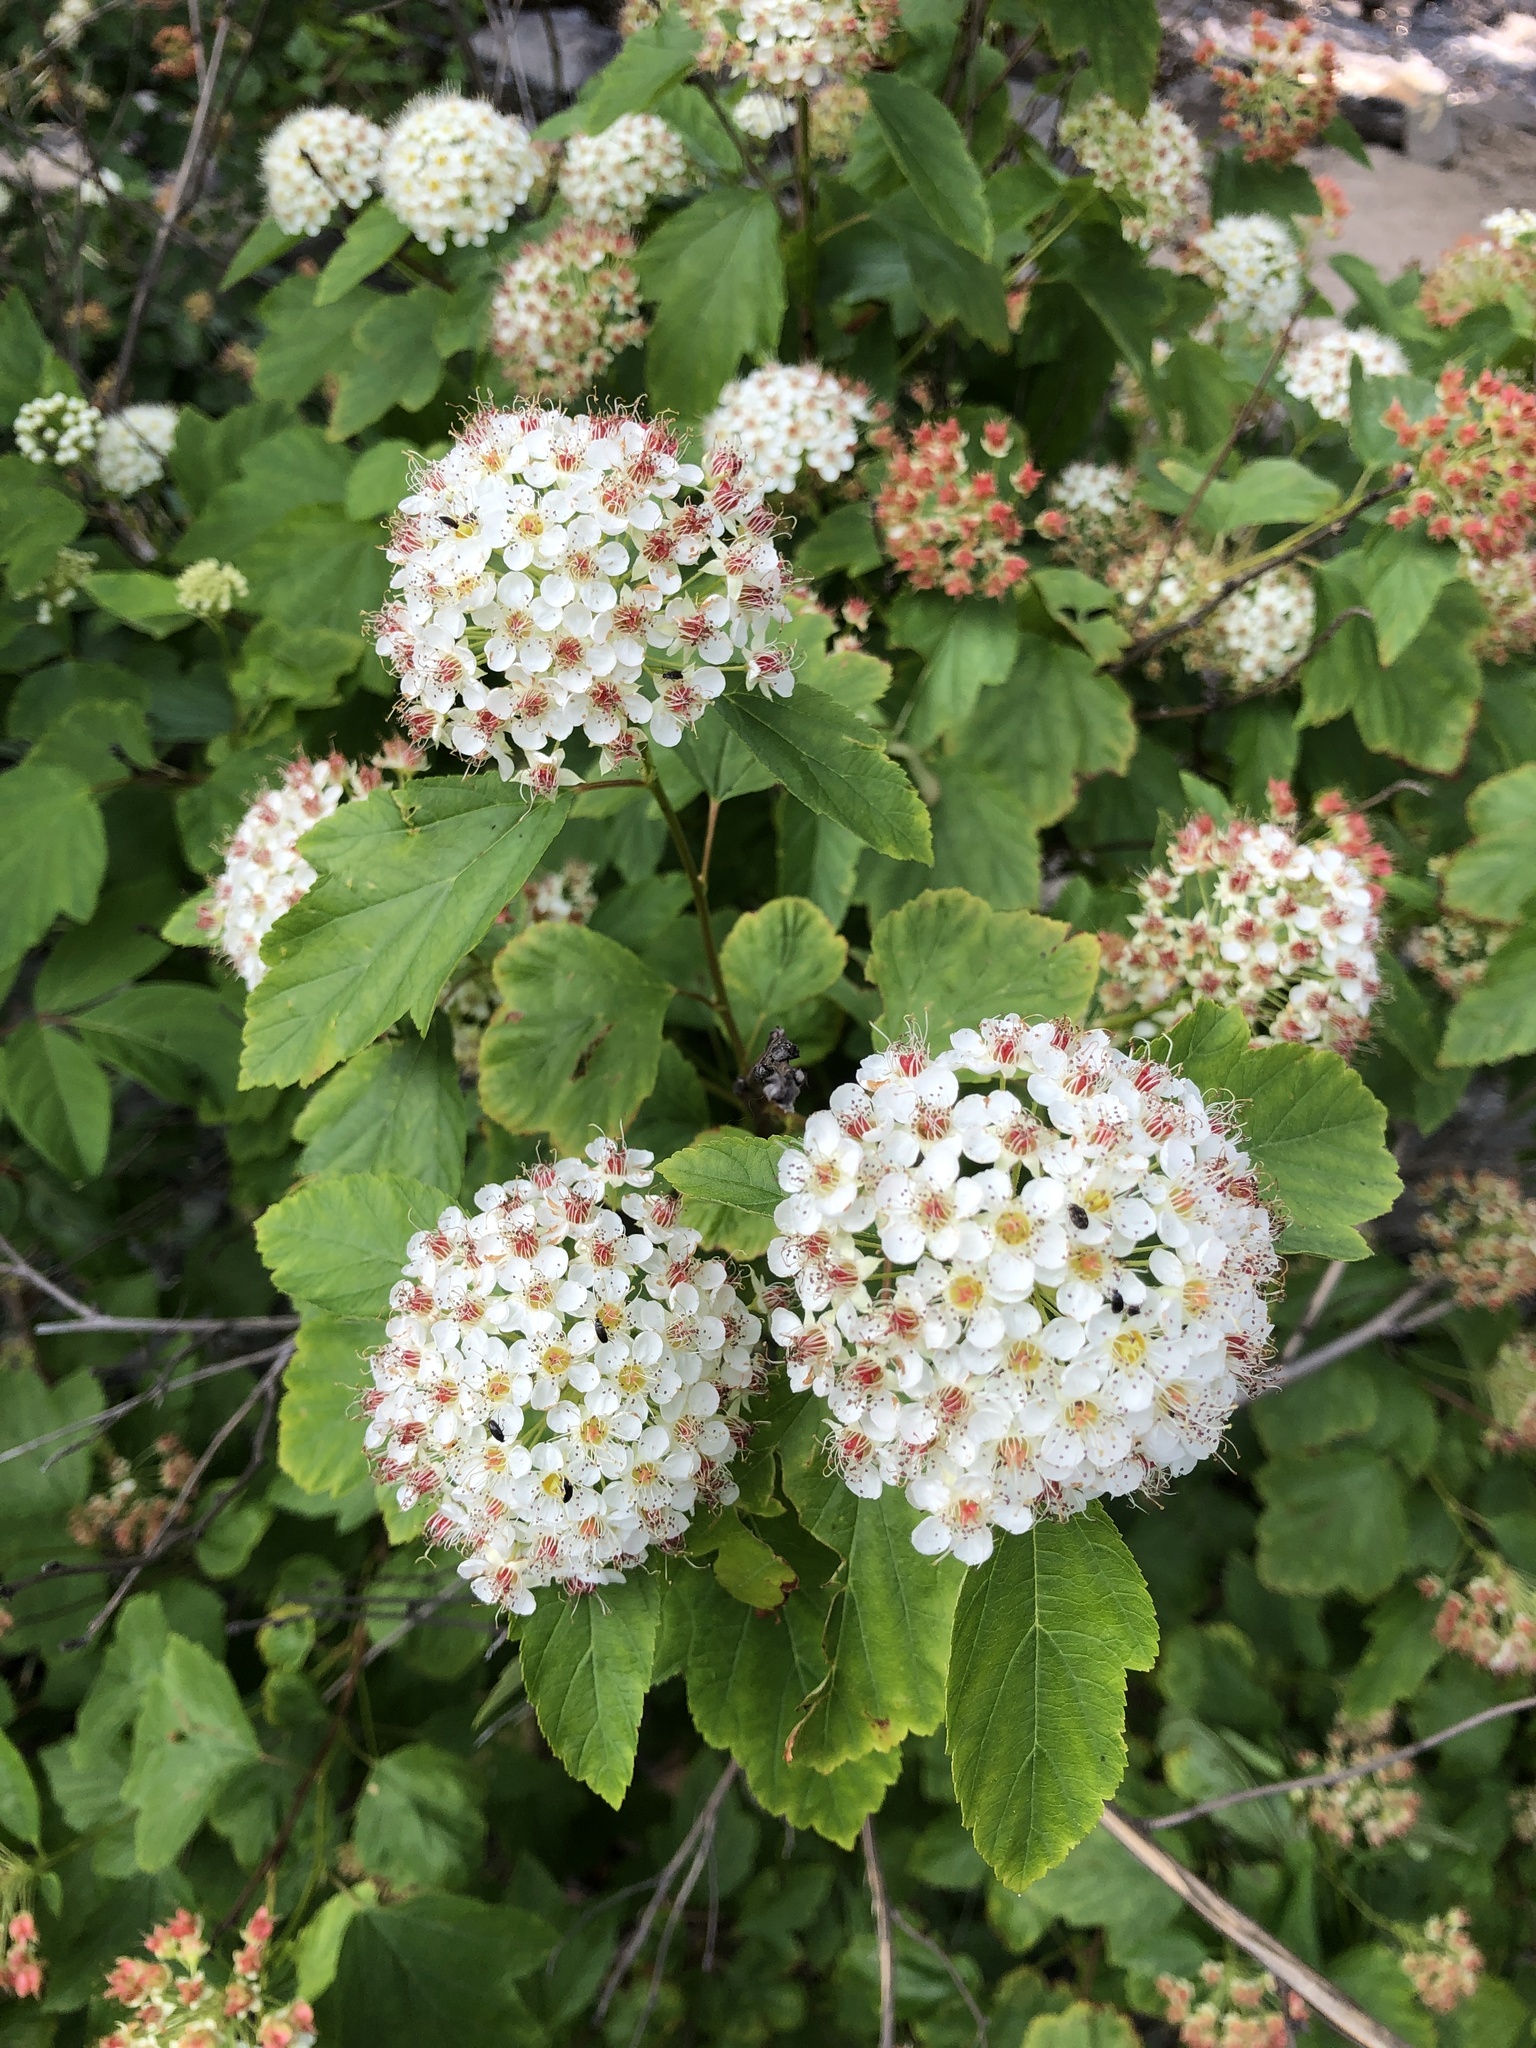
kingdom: Plantae
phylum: Tracheophyta
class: Magnoliopsida
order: Rosales
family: Rosaceae
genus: Physocarpus
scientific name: Physocarpus opulifolius
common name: Ninebark
